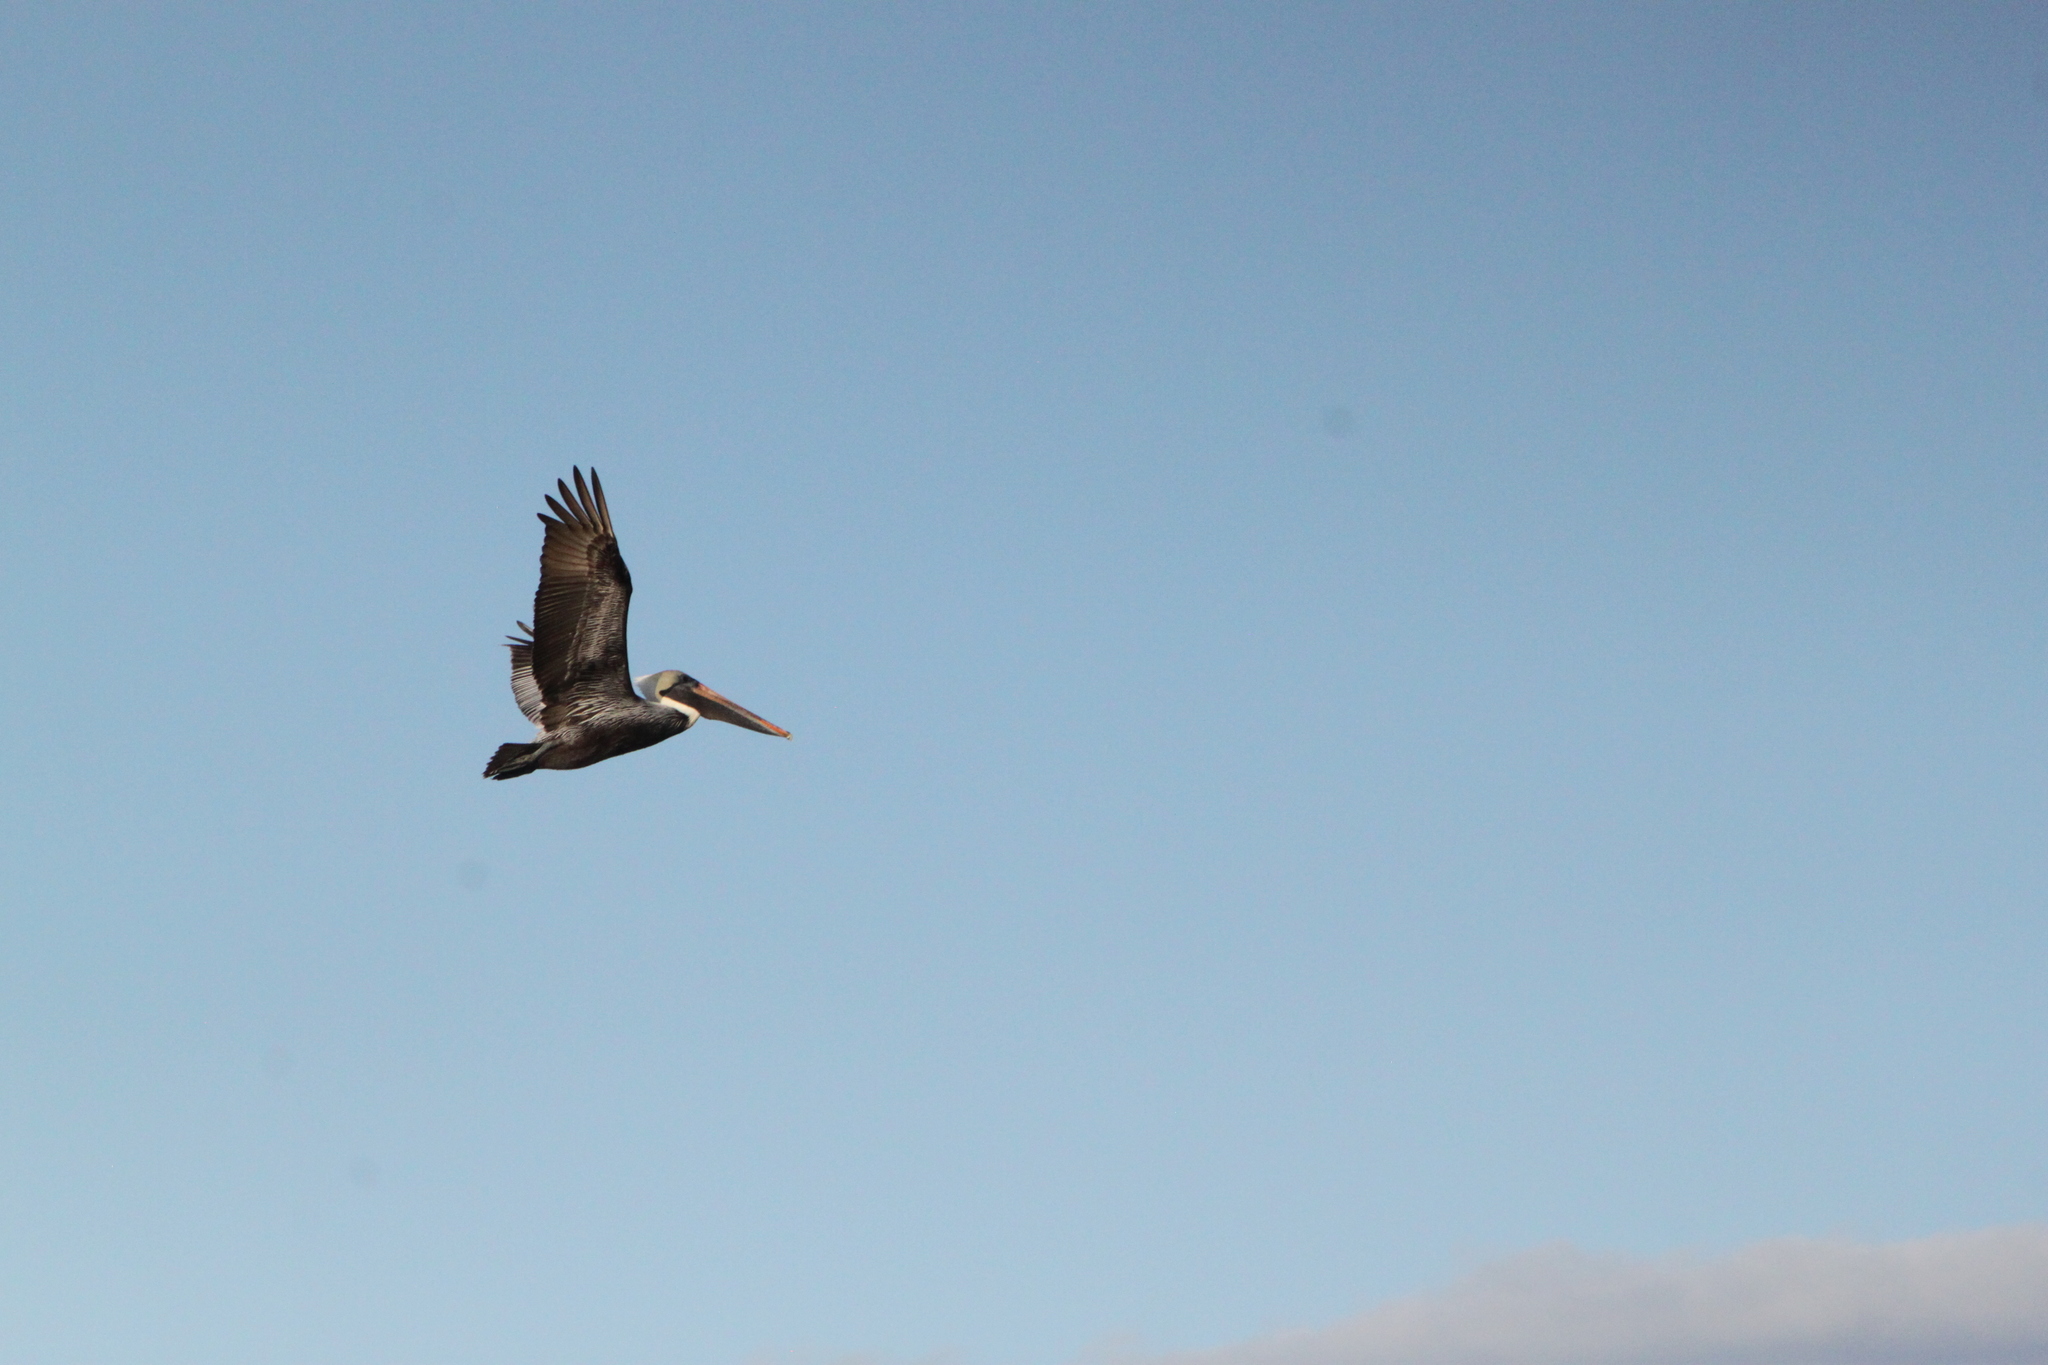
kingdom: Animalia
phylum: Chordata
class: Aves
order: Pelecaniformes
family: Pelecanidae
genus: Pelecanus
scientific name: Pelecanus occidentalis
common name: Brown pelican
